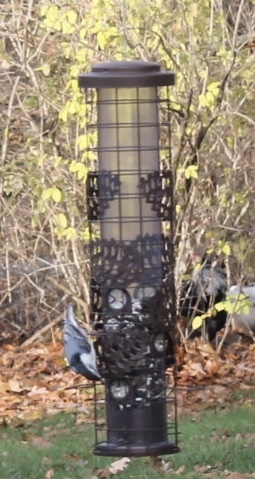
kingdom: Animalia
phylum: Chordata
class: Aves
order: Passeriformes
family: Sittidae
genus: Sitta
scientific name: Sitta carolinensis
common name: White-breasted nuthatch
